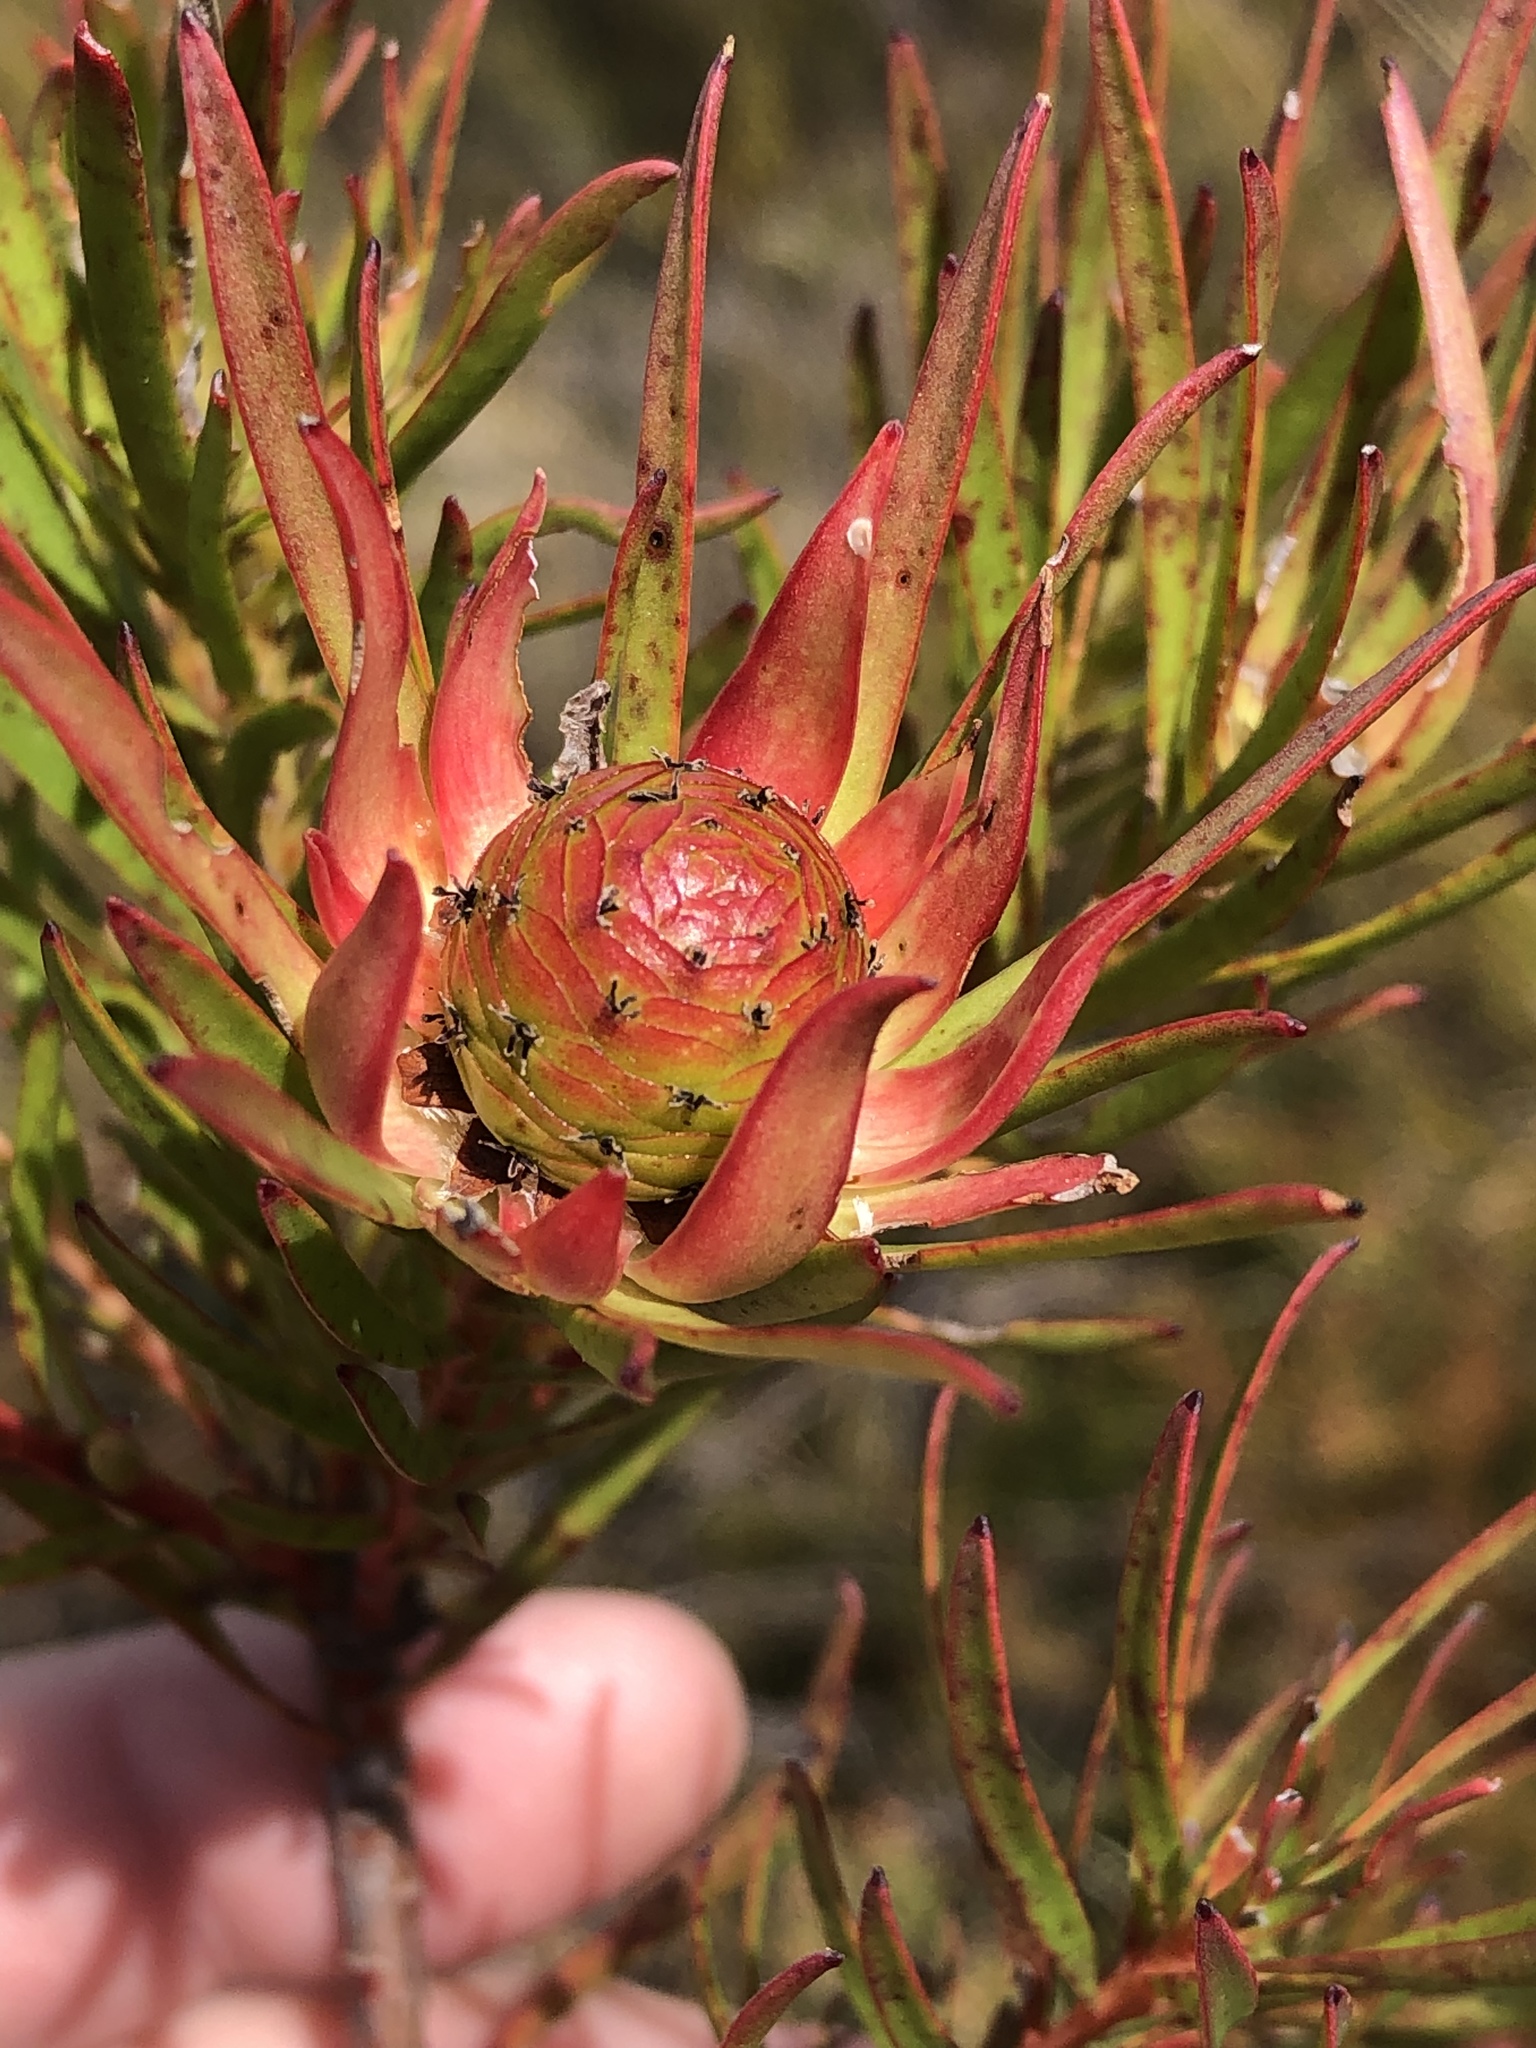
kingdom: Plantae
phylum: Tracheophyta
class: Magnoliopsida
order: Proteales
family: Proteaceae
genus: Leucadendron
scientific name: Leucadendron spissifolium
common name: Spear-leaf conebush
